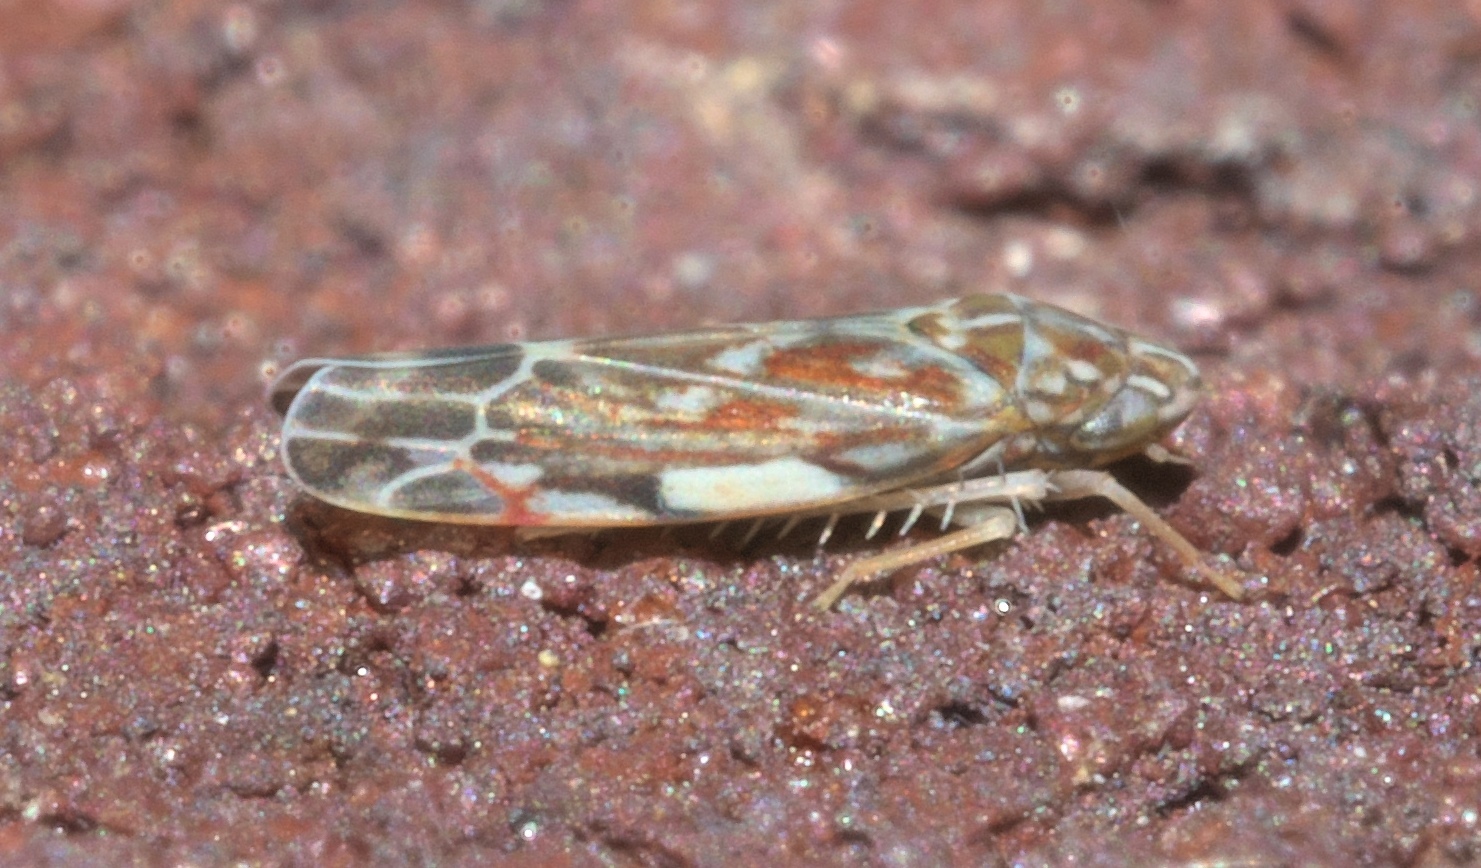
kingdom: Animalia
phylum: Arthropoda
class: Insecta
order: Hemiptera
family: Cicadellidae
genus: Erasmoneura
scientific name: Erasmoneura vulnerata
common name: The wounded leafhopper
